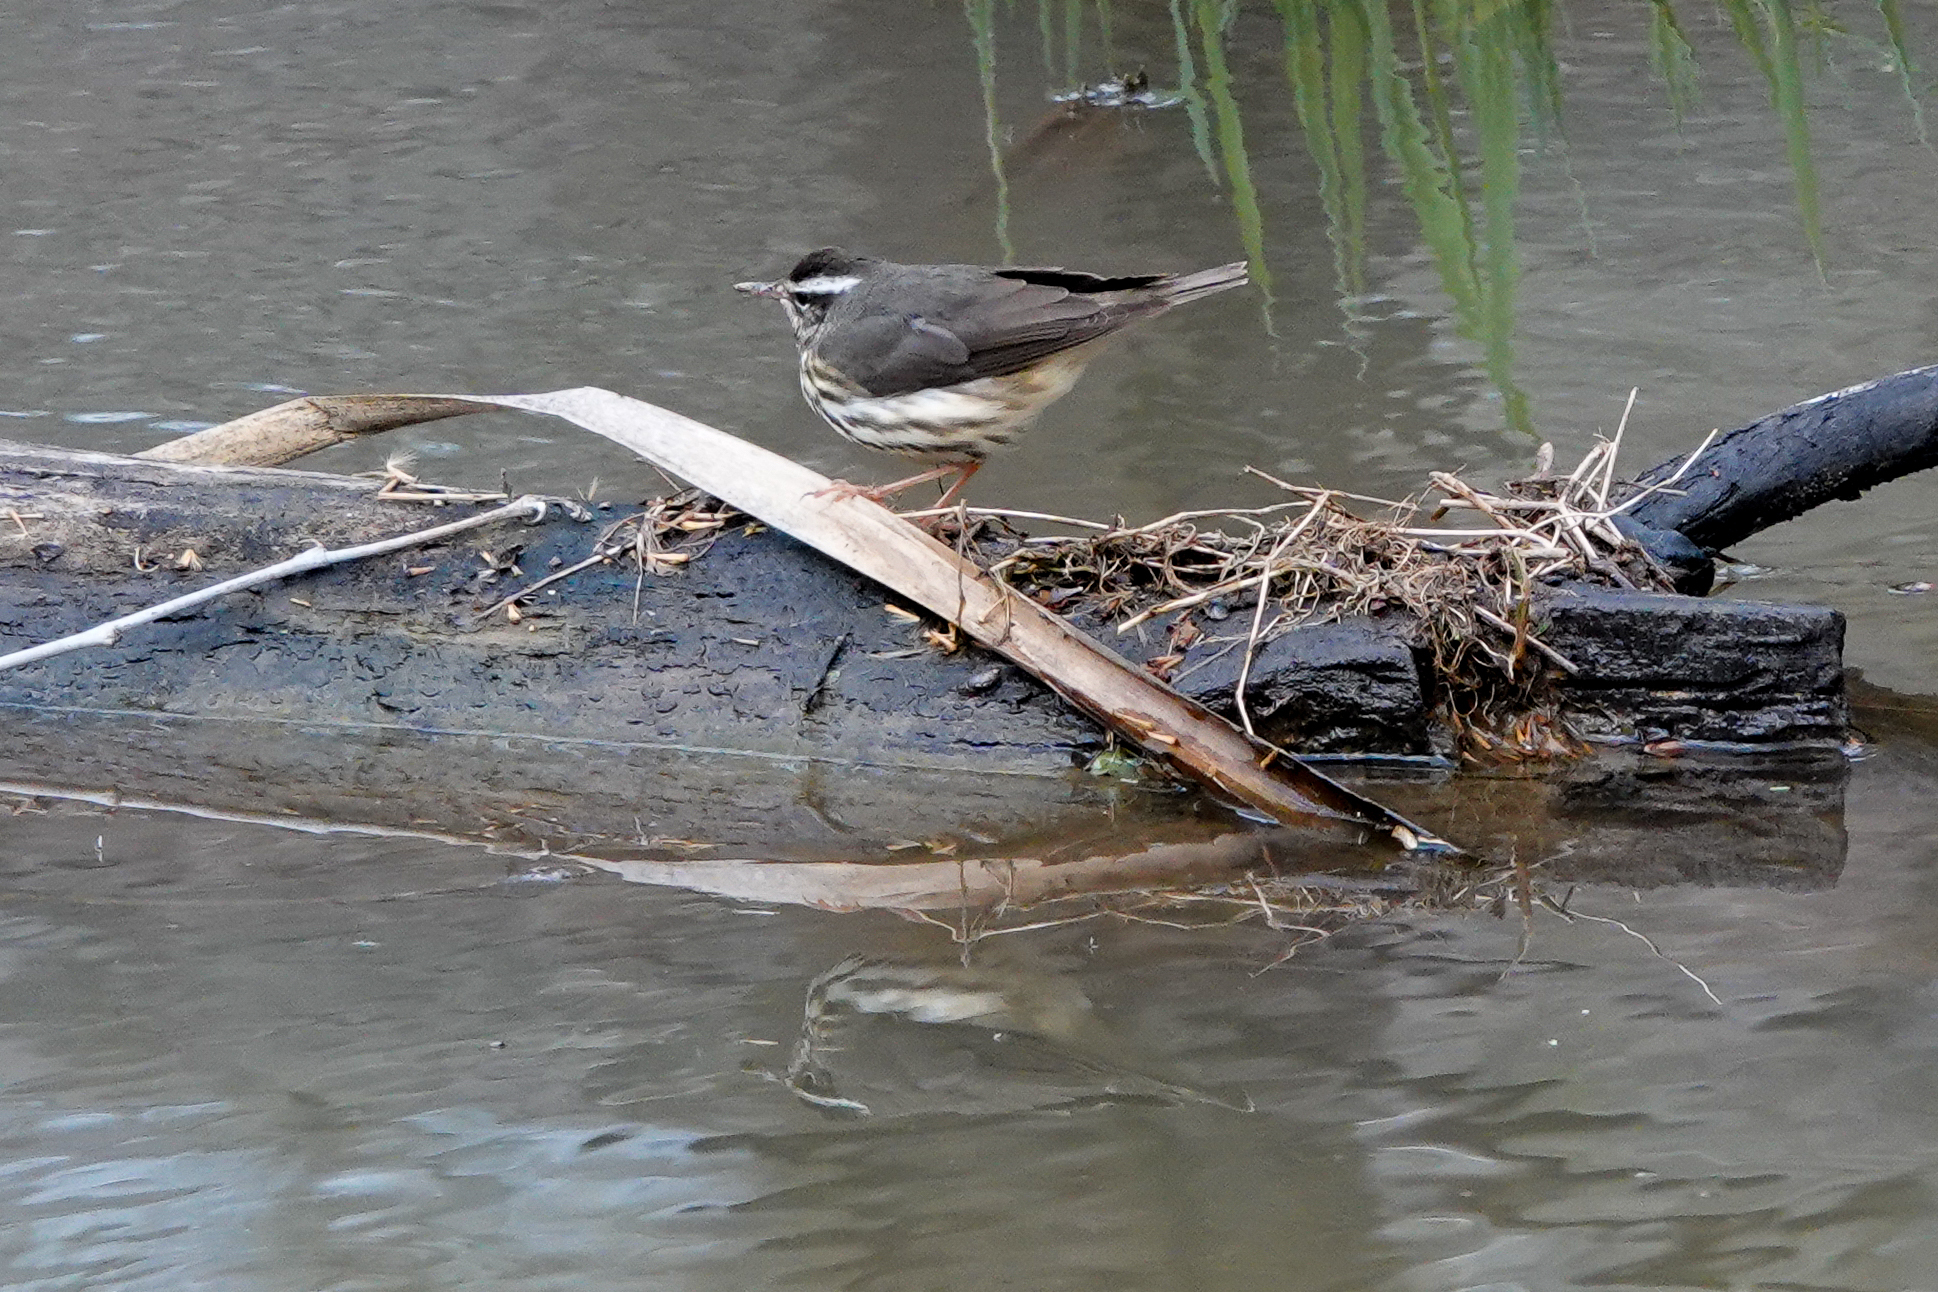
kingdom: Animalia
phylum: Chordata
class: Aves
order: Passeriformes
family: Parulidae
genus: Parkesia
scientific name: Parkesia motacilla
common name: Louisiana waterthrush
